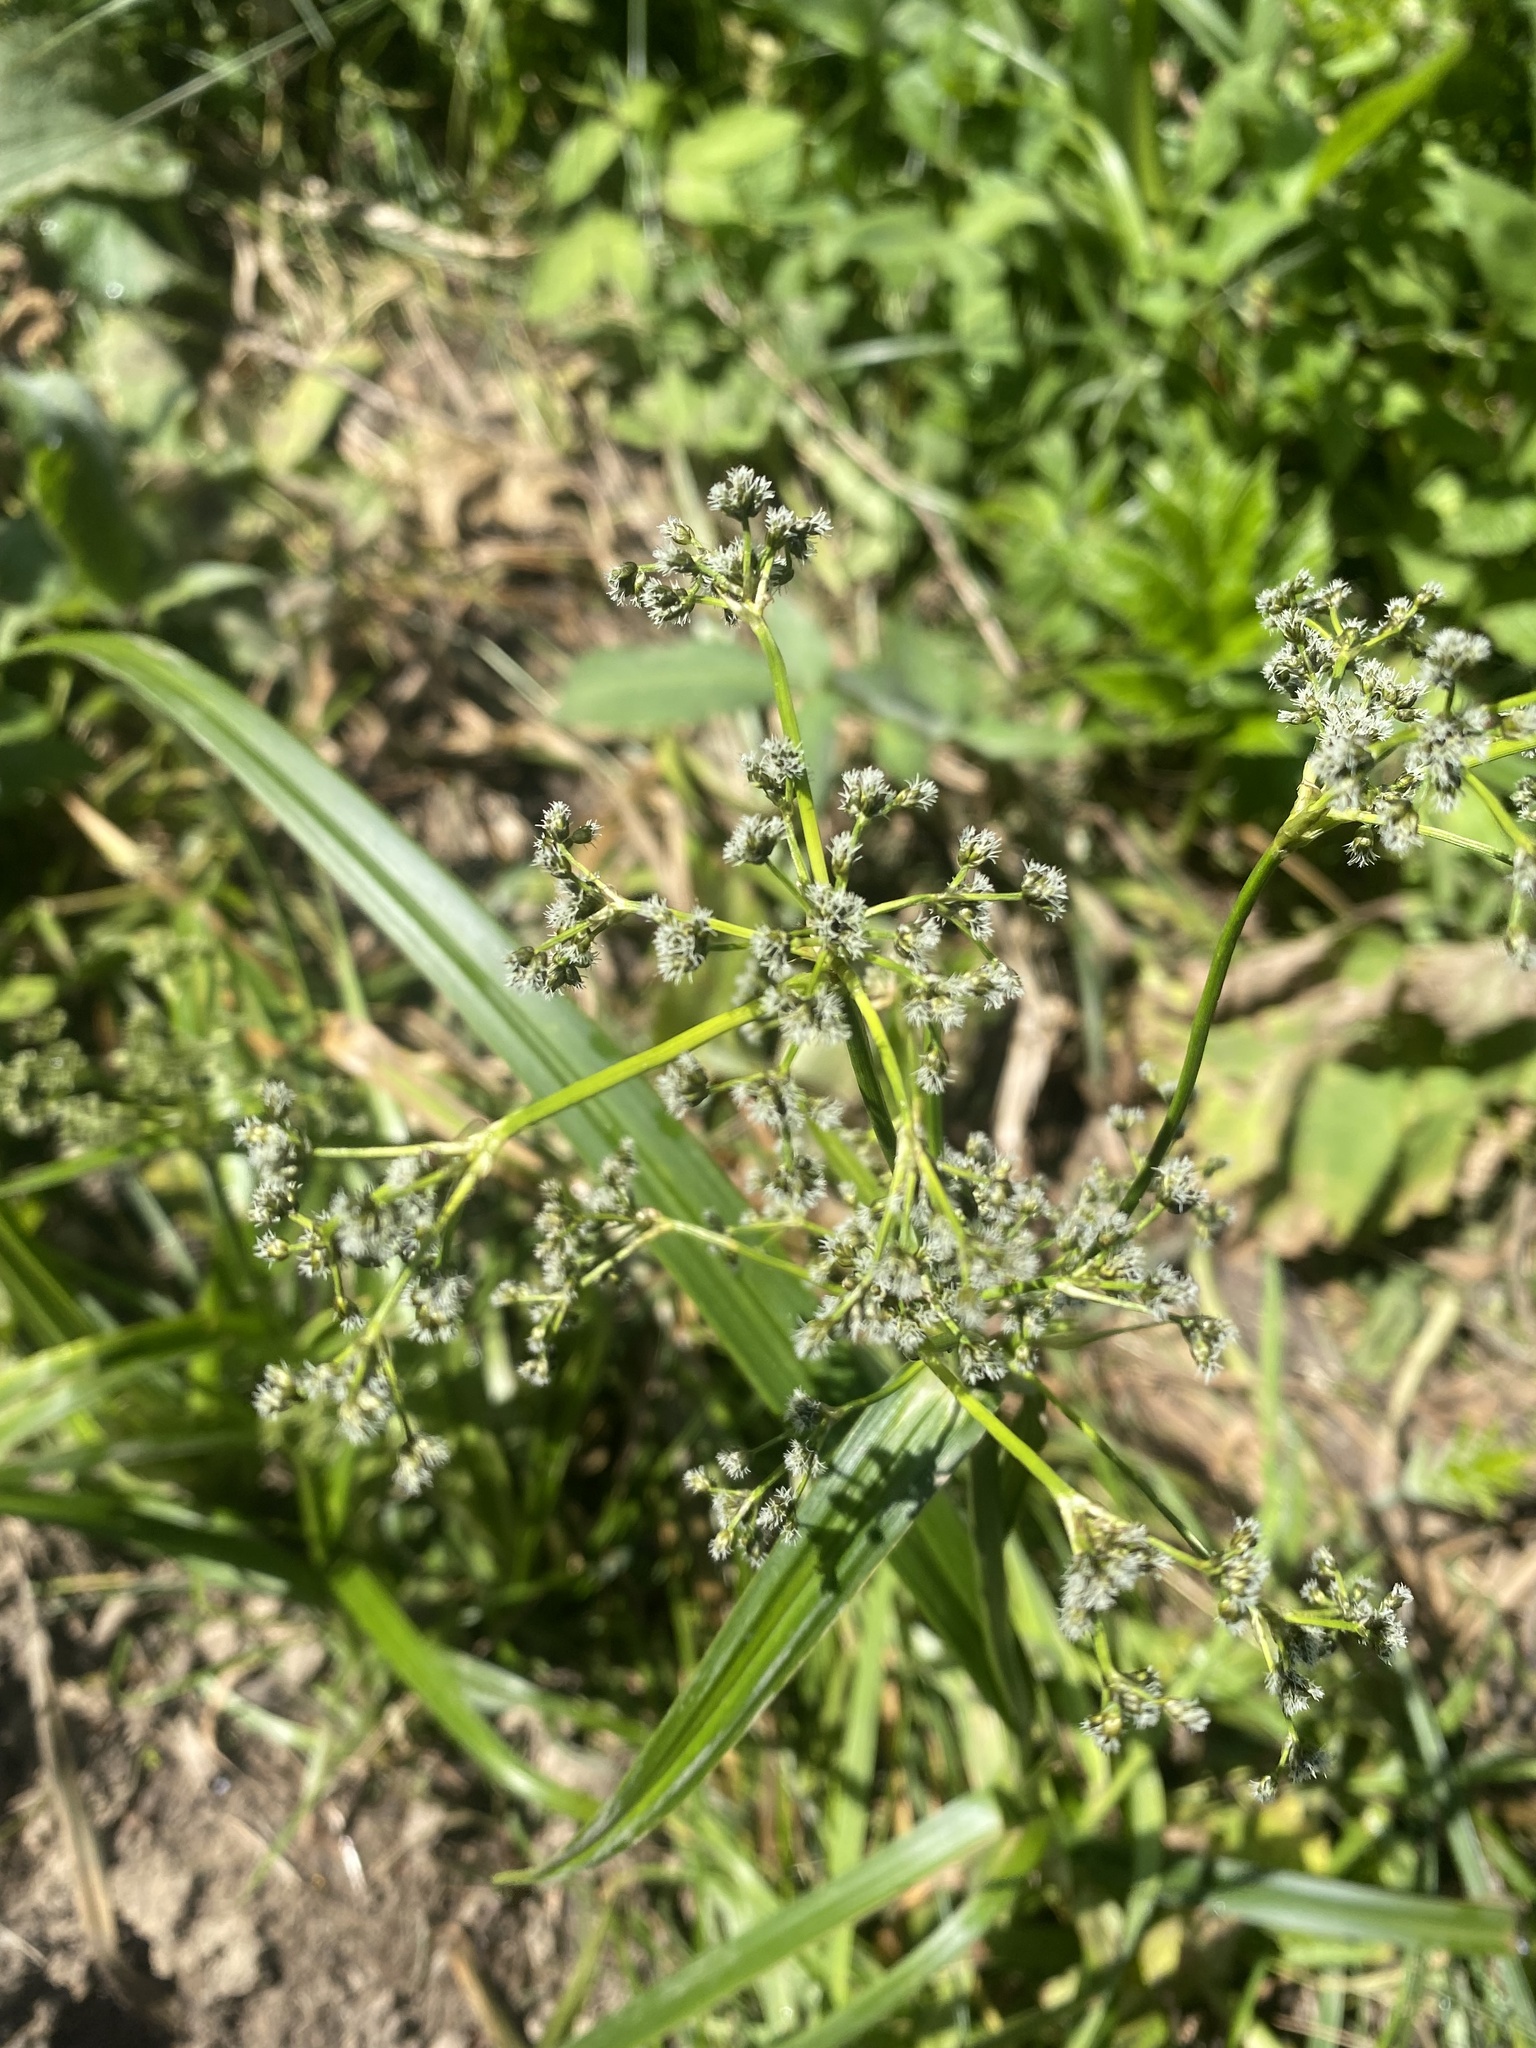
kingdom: Plantae
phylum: Tracheophyta
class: Liliopsida
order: Poales
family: Cyperaceae
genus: Scirpus
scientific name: Scirpus sylvaticus
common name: Wood club-rush
